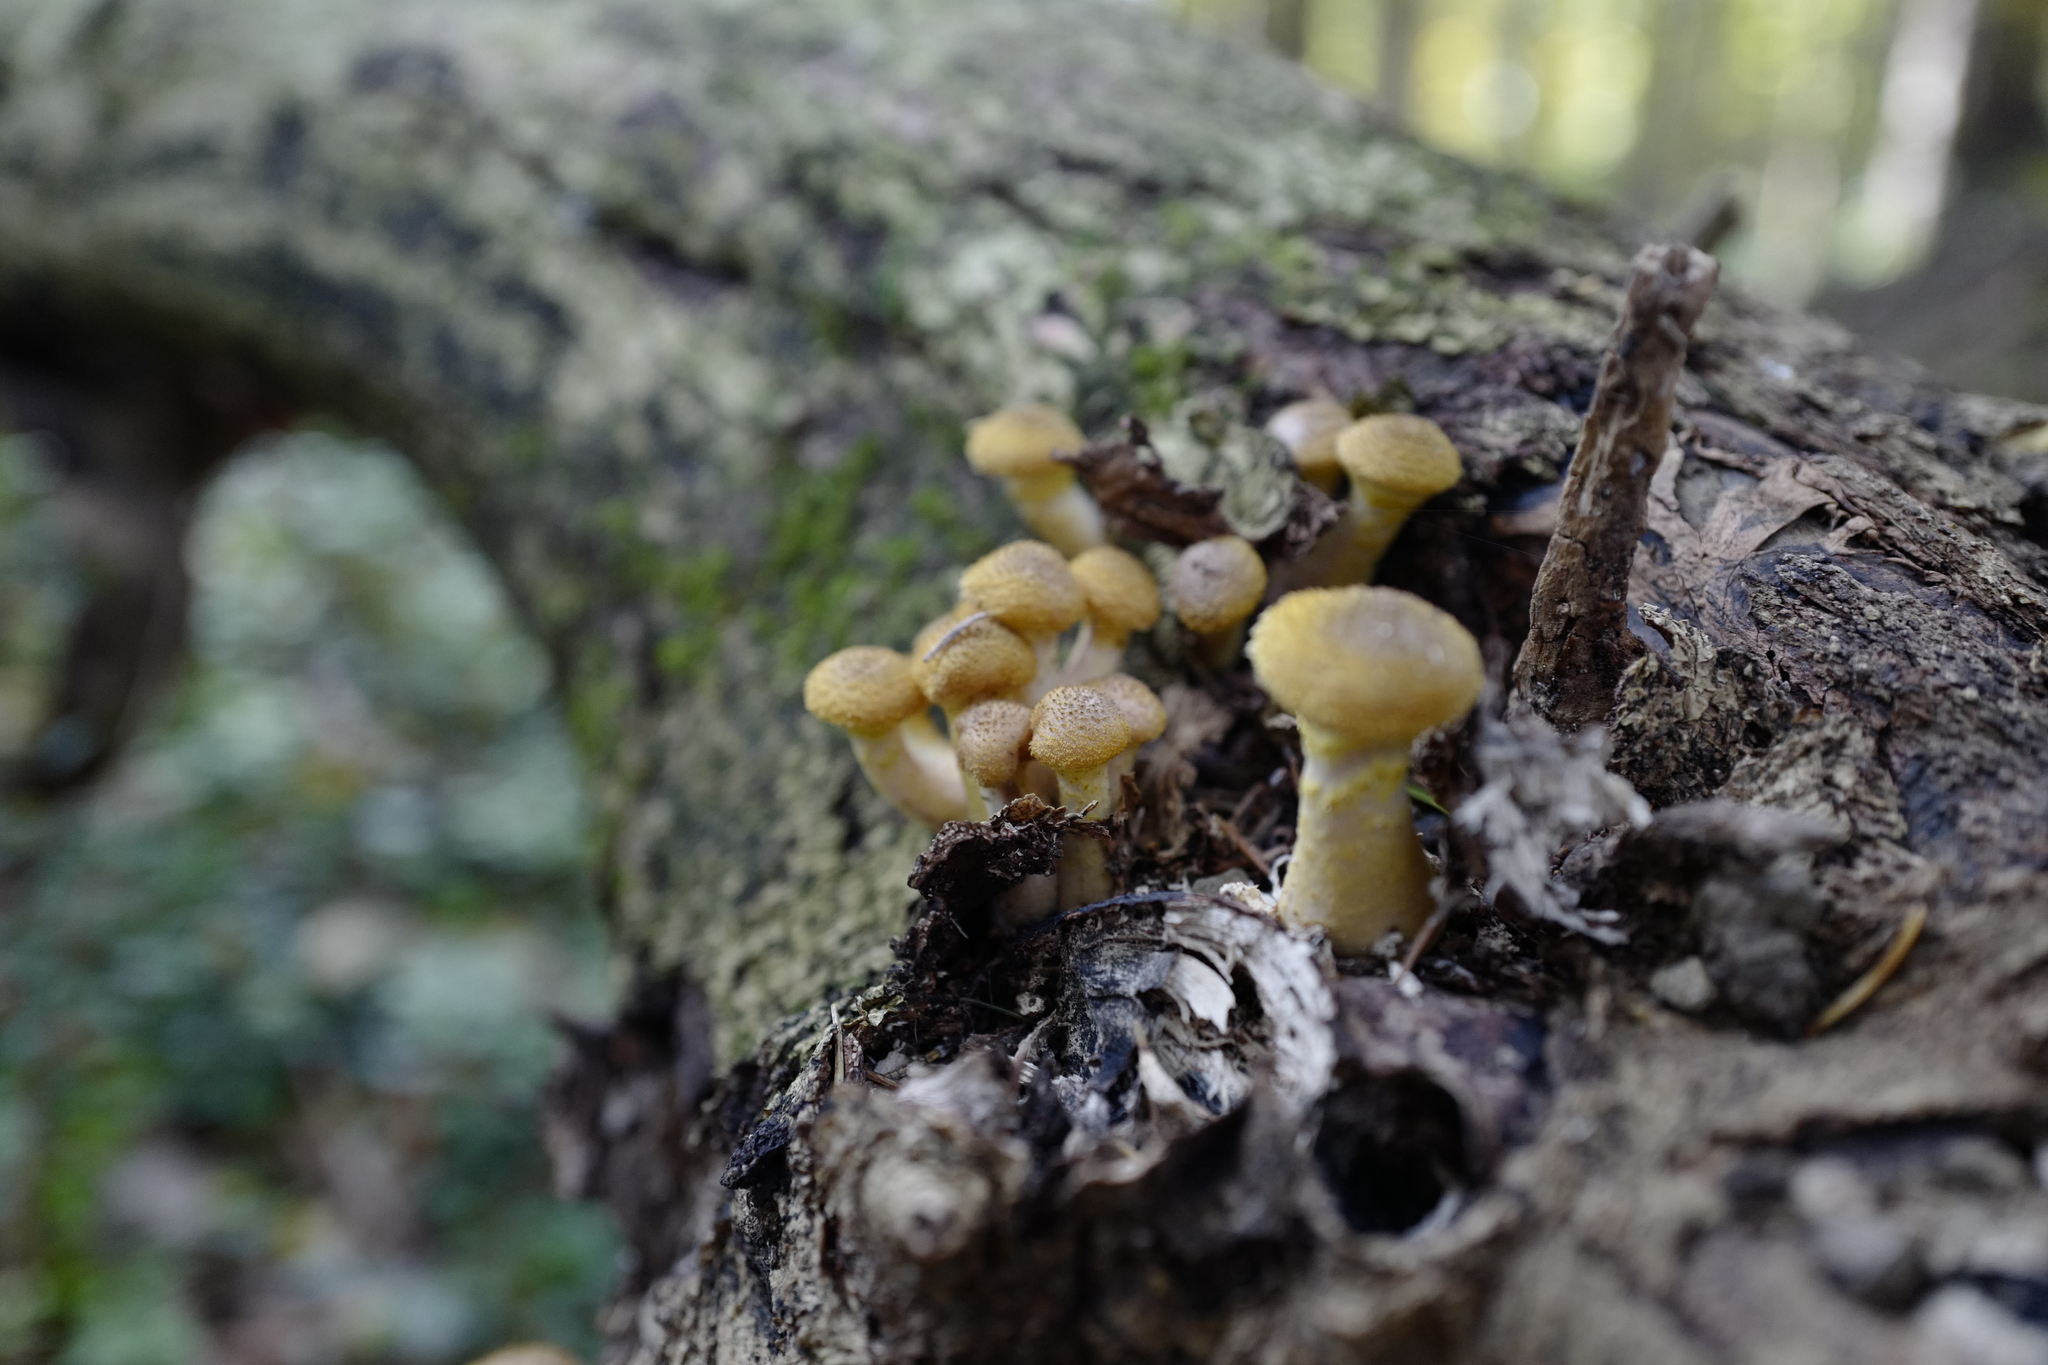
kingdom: Fungi
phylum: Basidiomycota
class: Agaricomycetes
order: Agaricales
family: Physalacriaceae
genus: Armillaria
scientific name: Armillaria gallica
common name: Bulbous honey fungus
